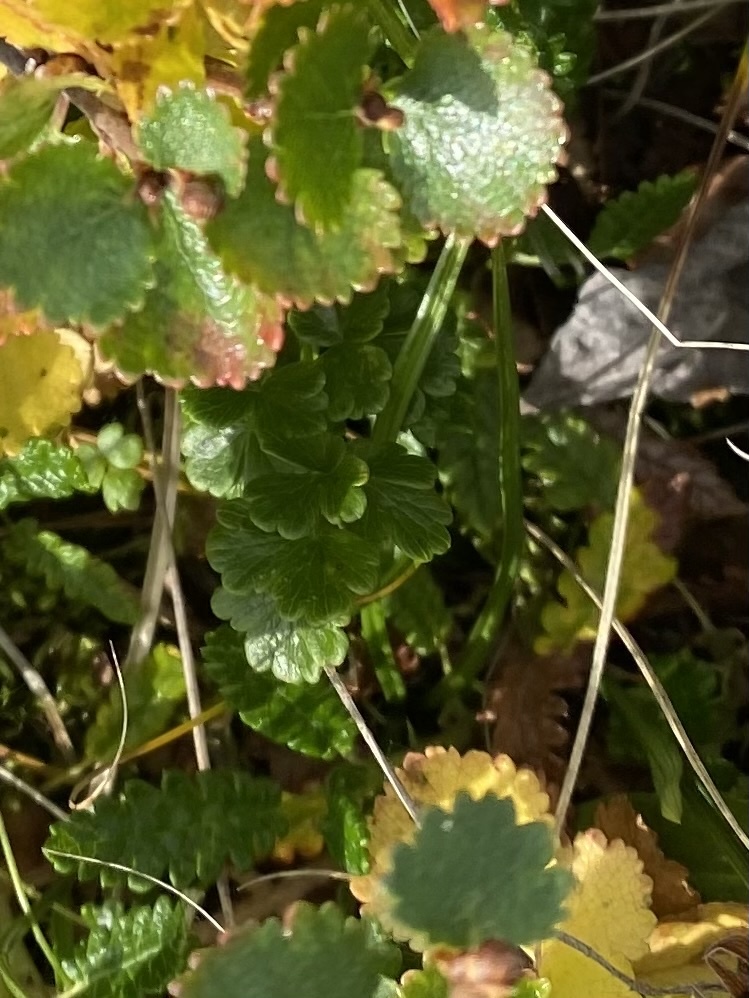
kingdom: Plantae
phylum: Tracheophyta
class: Magnoliopsida
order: Ranunculales
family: Ranunculaceae
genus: Thalictrum
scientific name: Thalictrum alpinum
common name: Alpine meadow-rue
